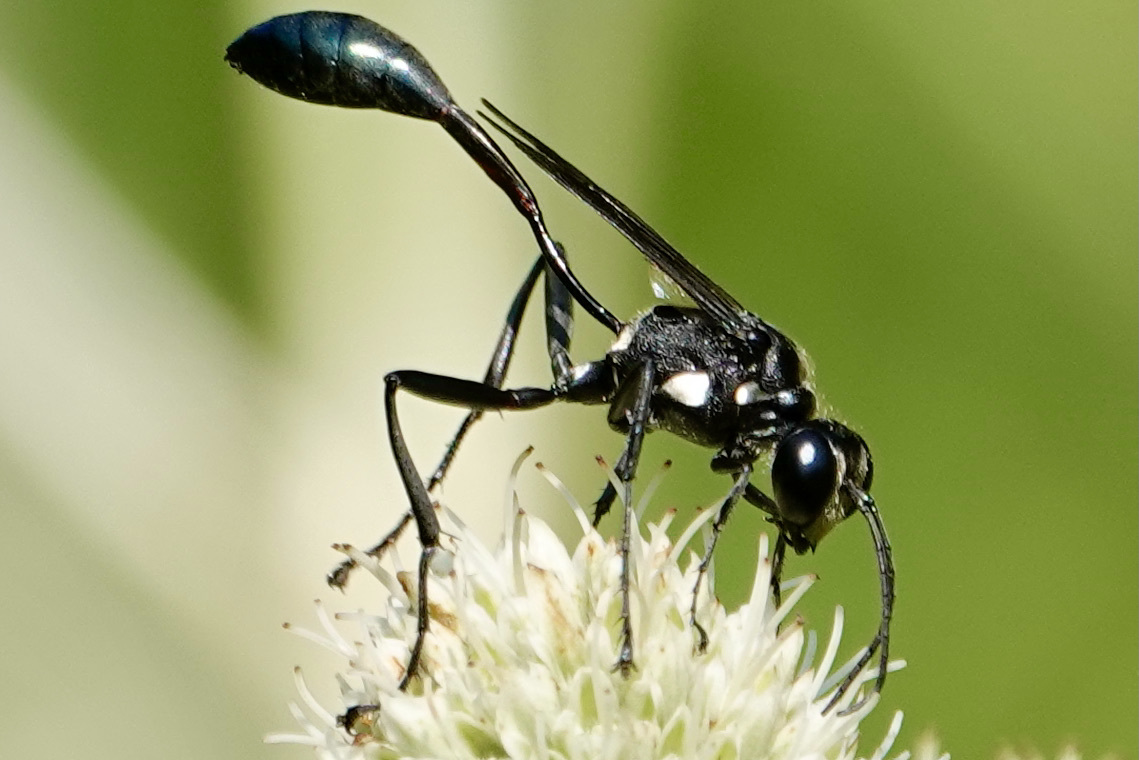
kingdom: Animalia
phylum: Arthropoda
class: Insecta
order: Hymenoptera
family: Sphecidae
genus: Eremnophila
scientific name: Eremnophila aureonotata
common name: Gold-marked thread-waisted wasp
